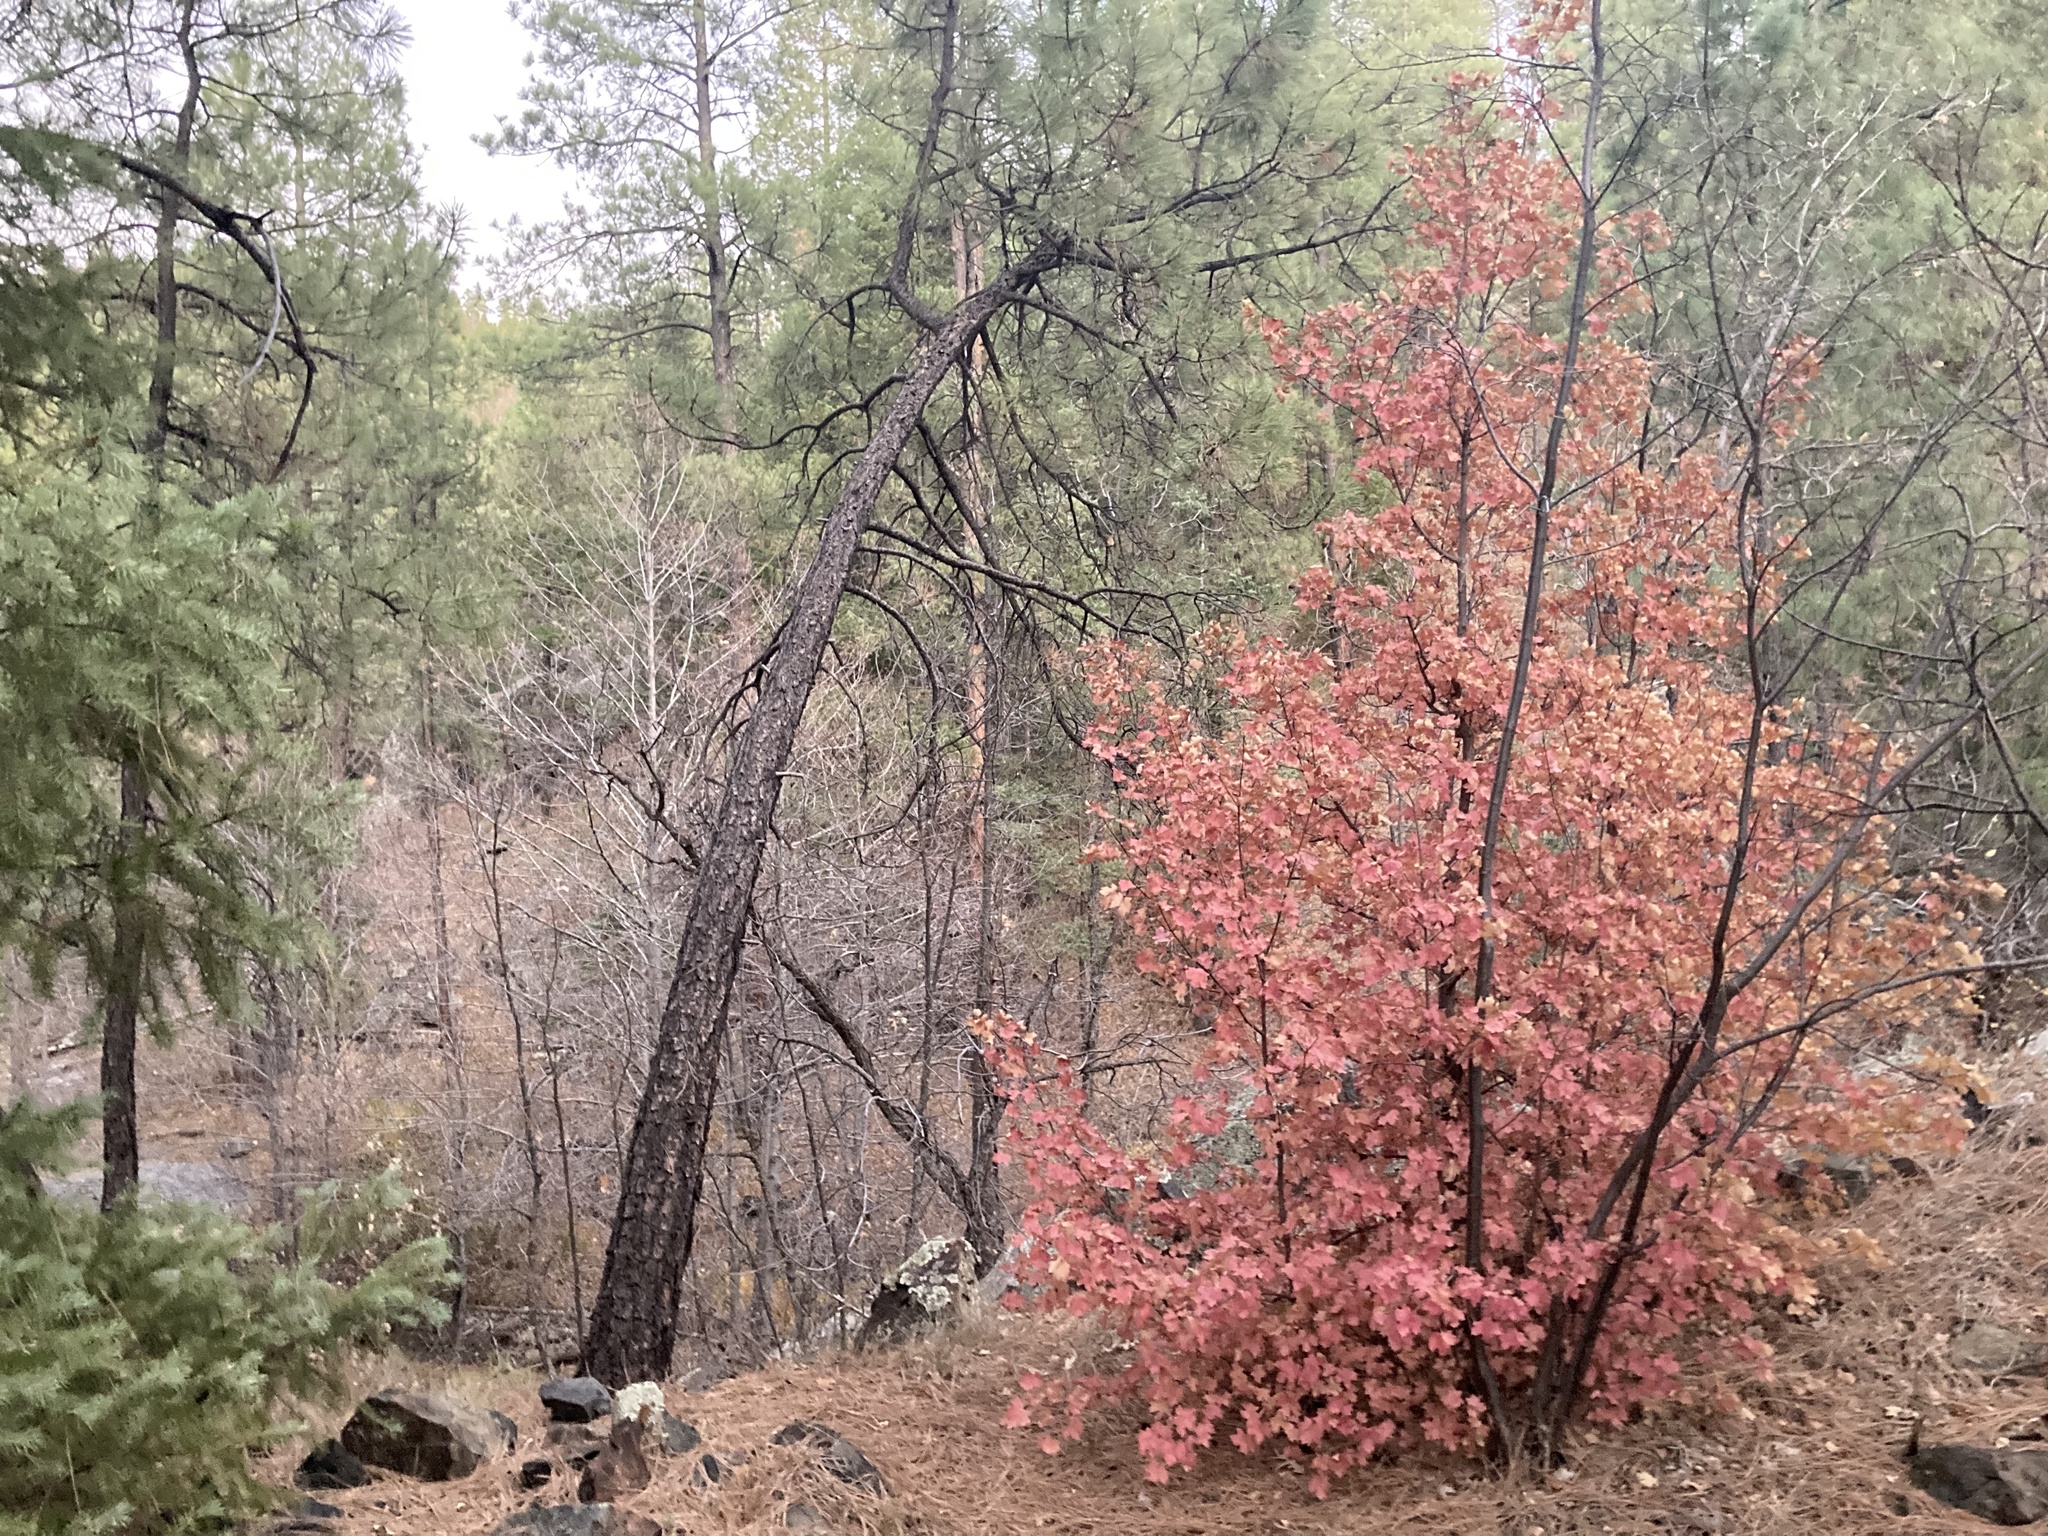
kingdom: Plantae
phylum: Tracheophyta
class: Magnoliopsida
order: Sapindales
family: Sapindaceae
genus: Acer
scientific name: Acer grandidentatum
